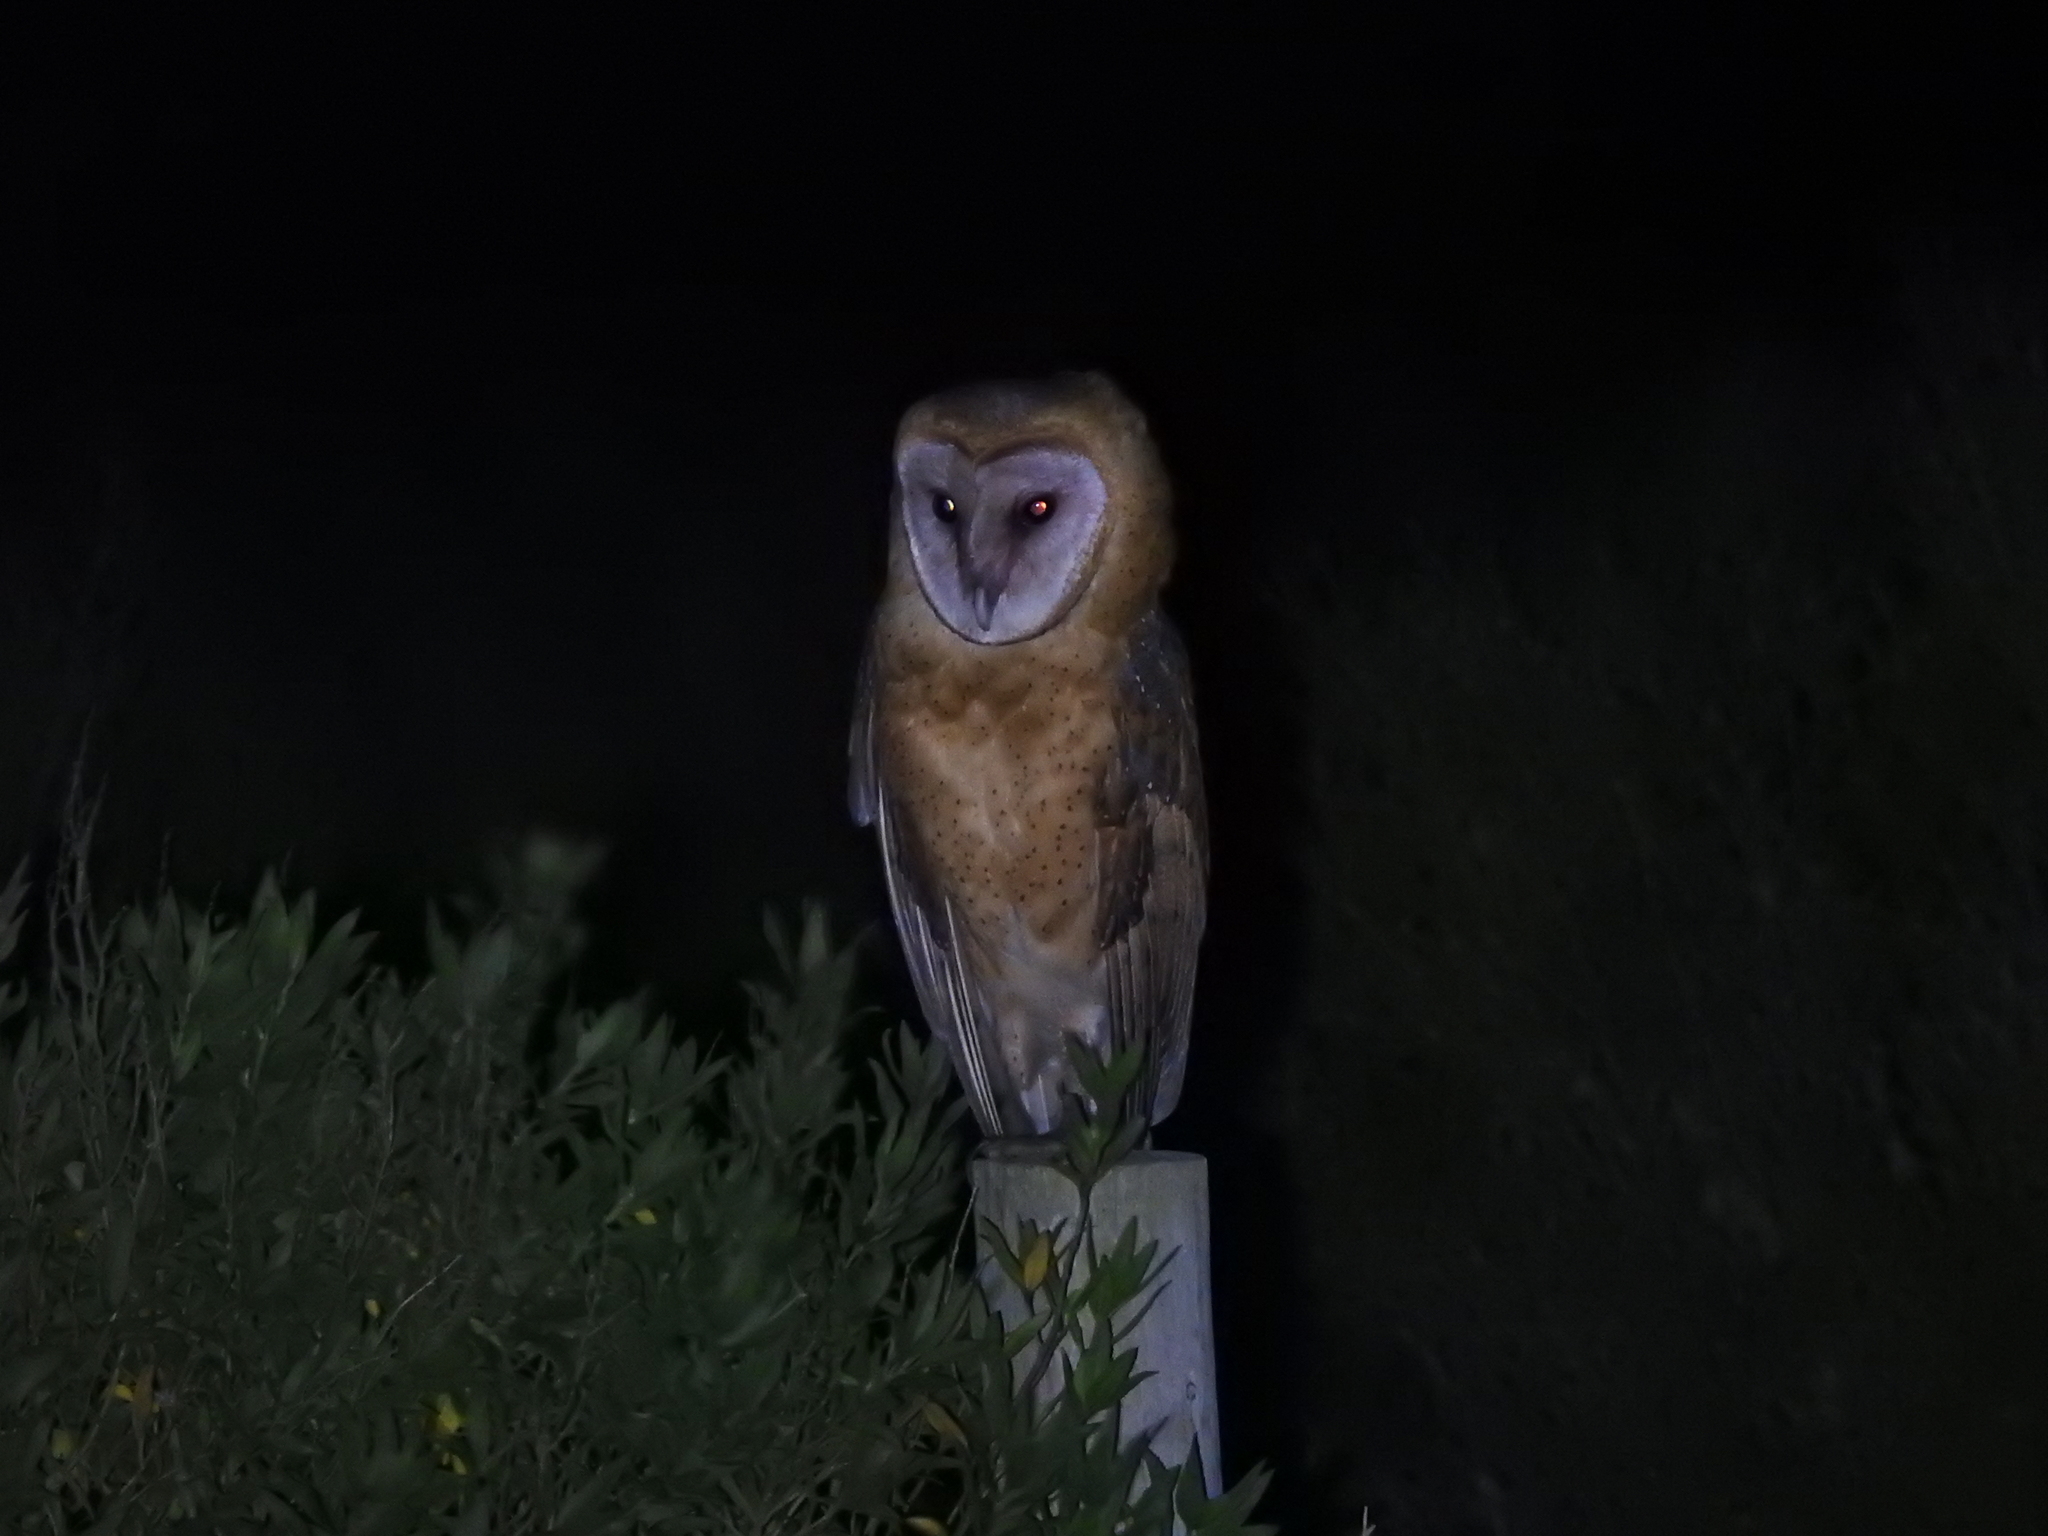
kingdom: Animalia
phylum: Chordata
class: Aves
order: Strigiformes
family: Tytonidae
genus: Tyto
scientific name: Tyto alba
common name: Barn owl
